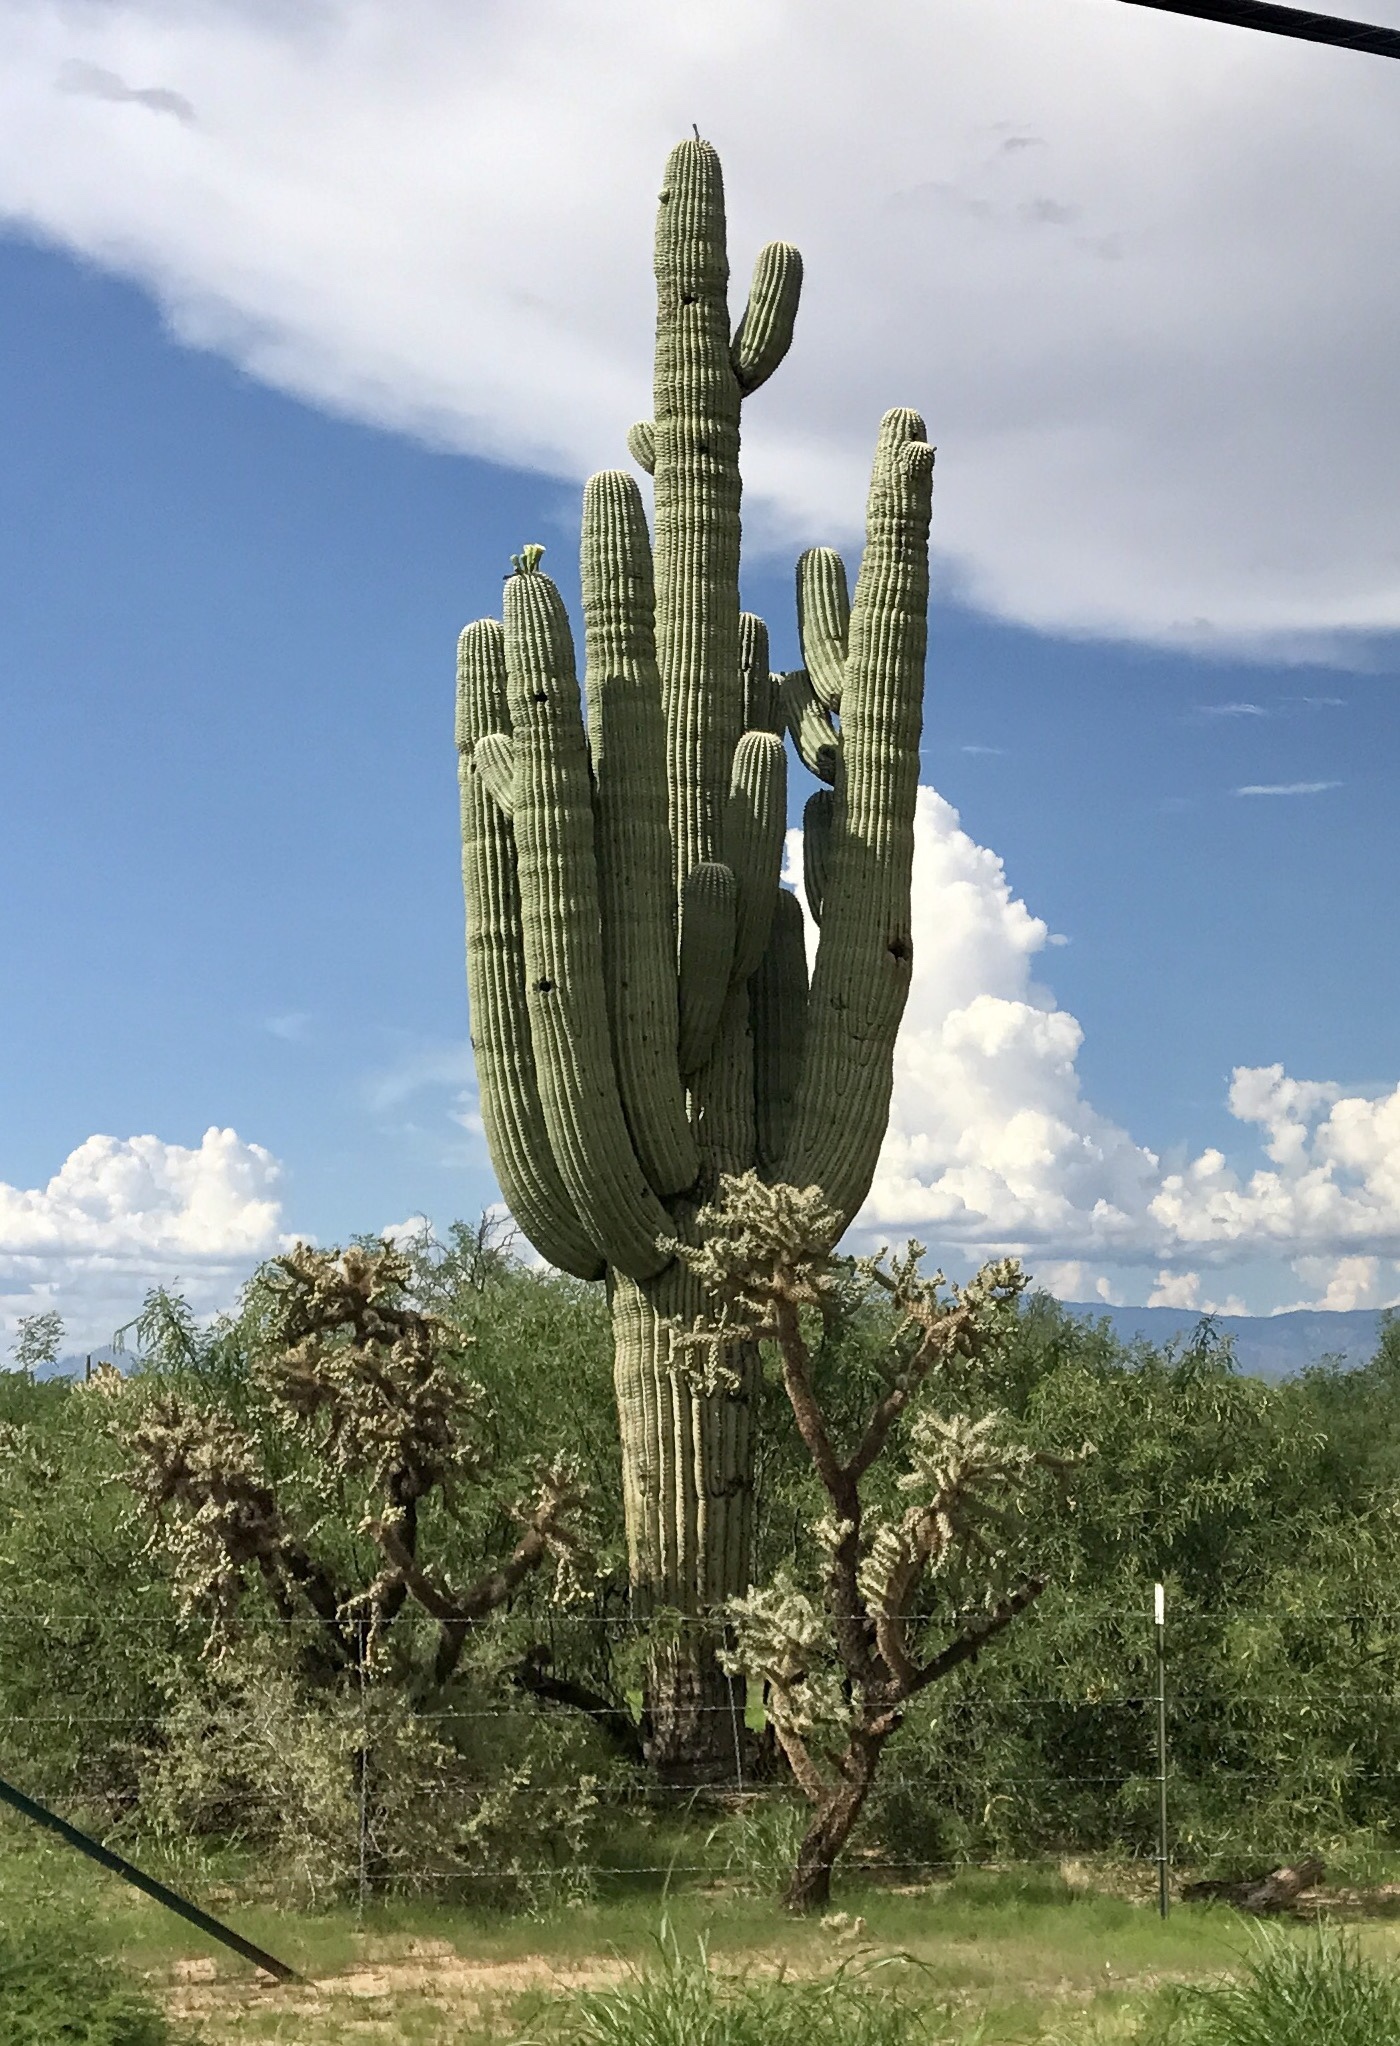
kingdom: Plantae
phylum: Tracheophyta
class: Magnoliopsida
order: Caryophyllales
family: Cactaceae
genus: Carnegiea
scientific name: Carnegiea gigantea
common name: Saguaro
